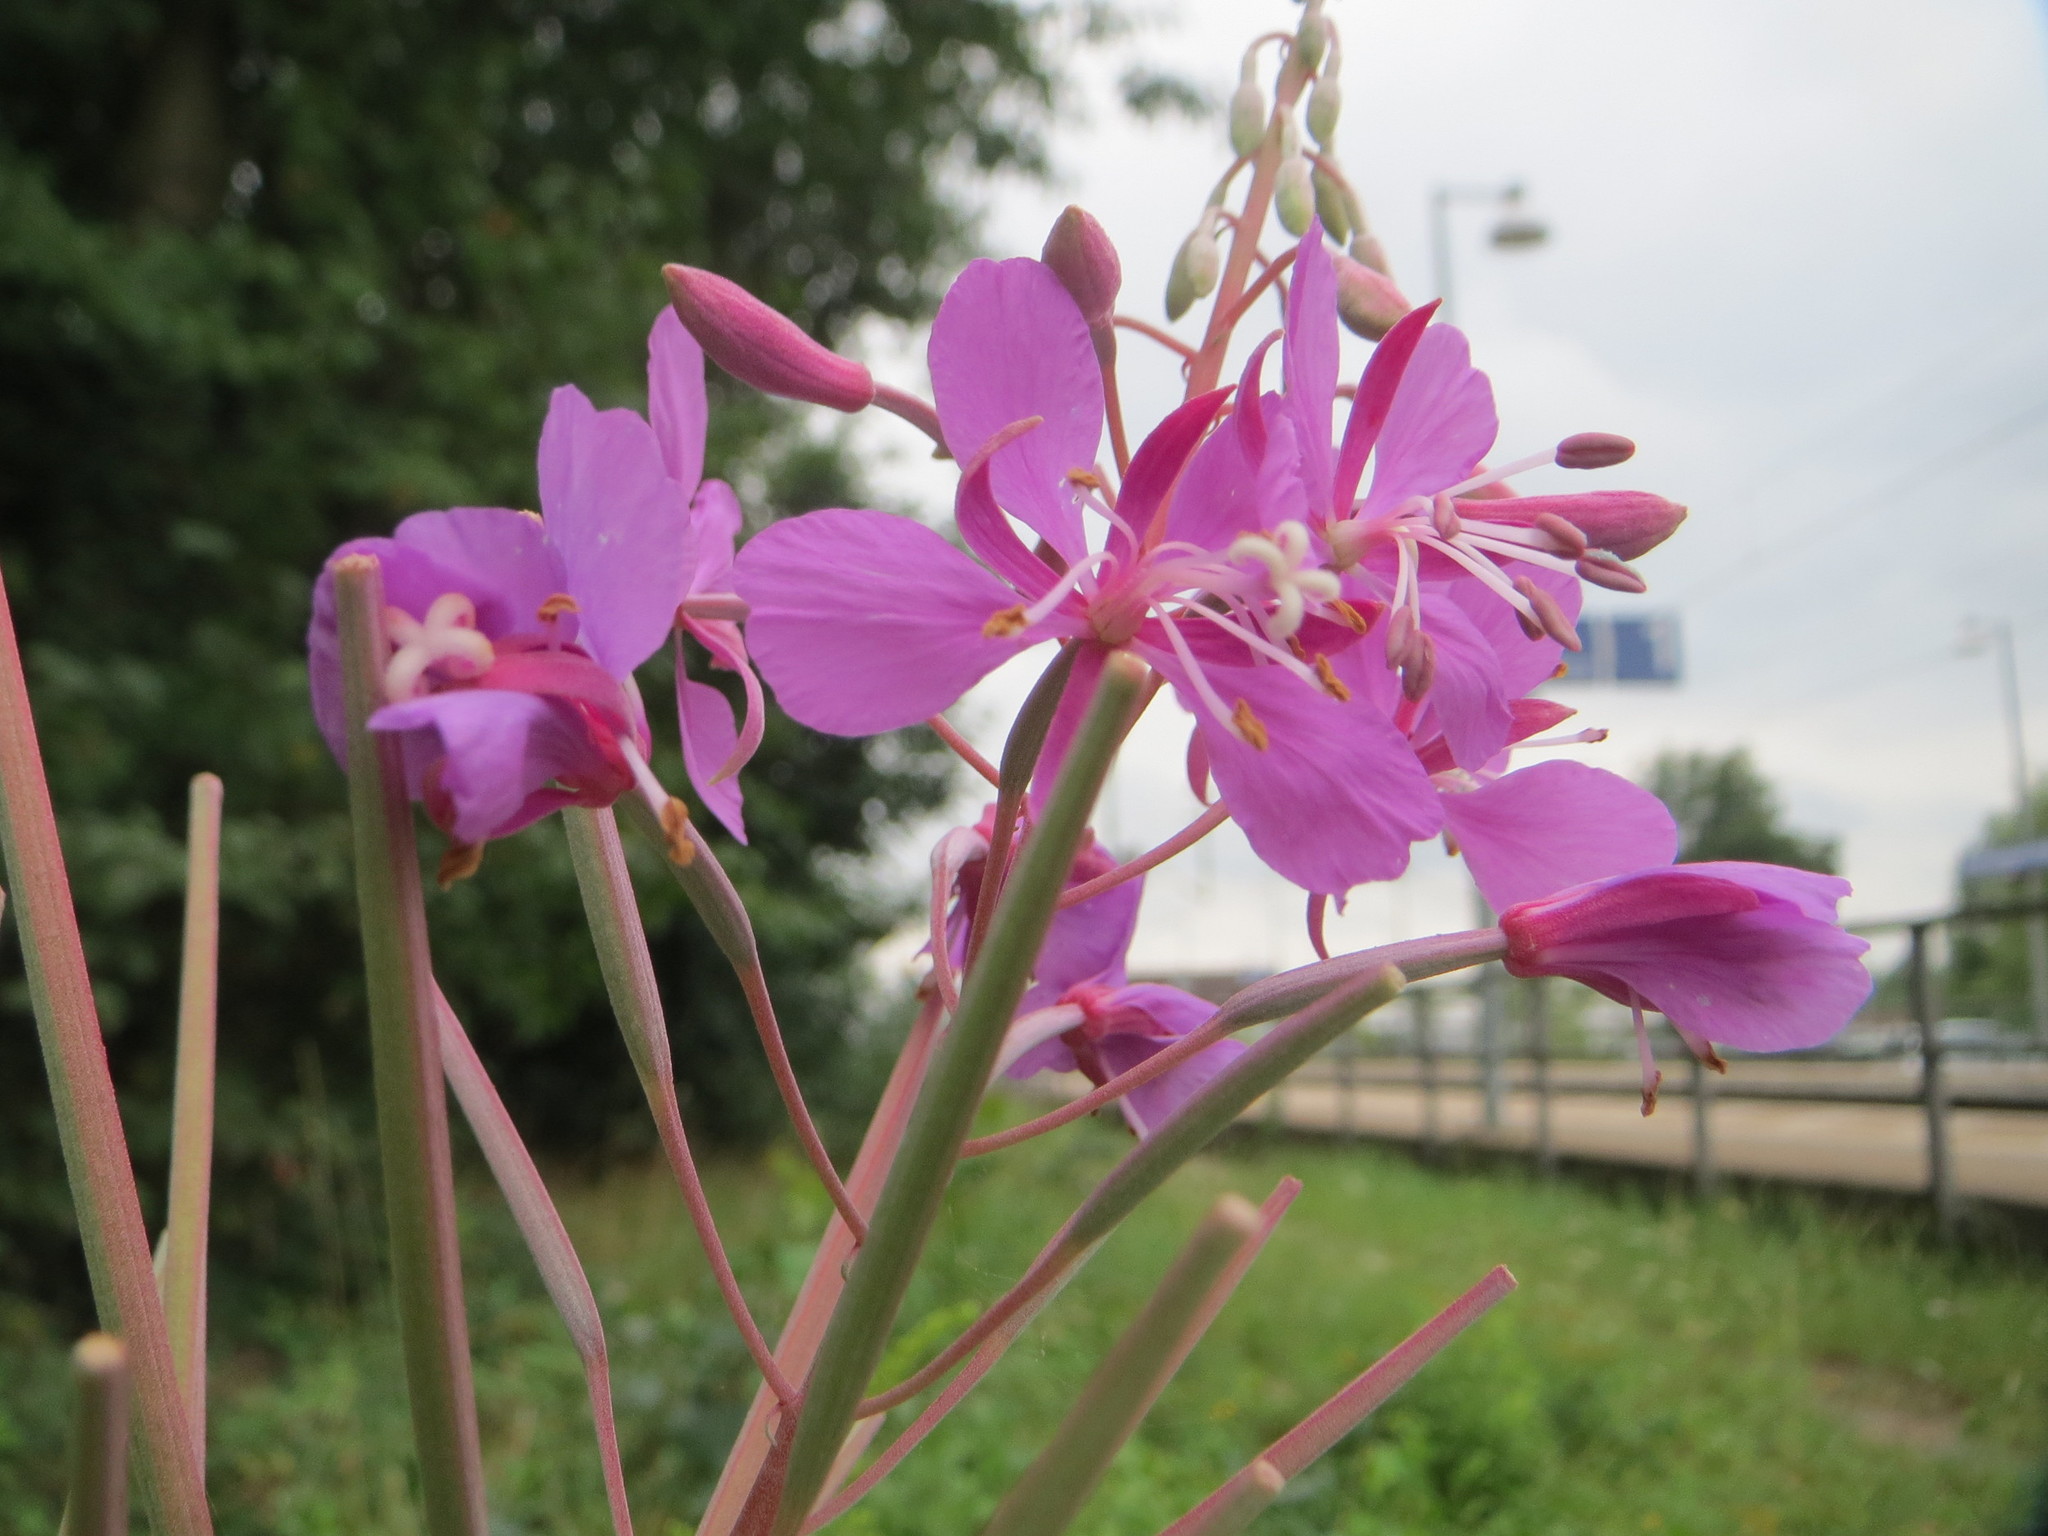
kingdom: Plantae
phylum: Tracheophyta
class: Magnoliopsida
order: Myrtales
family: Onagraceae
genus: Chamaenerion
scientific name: Chamaenerion angustifolium
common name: Fireweed
